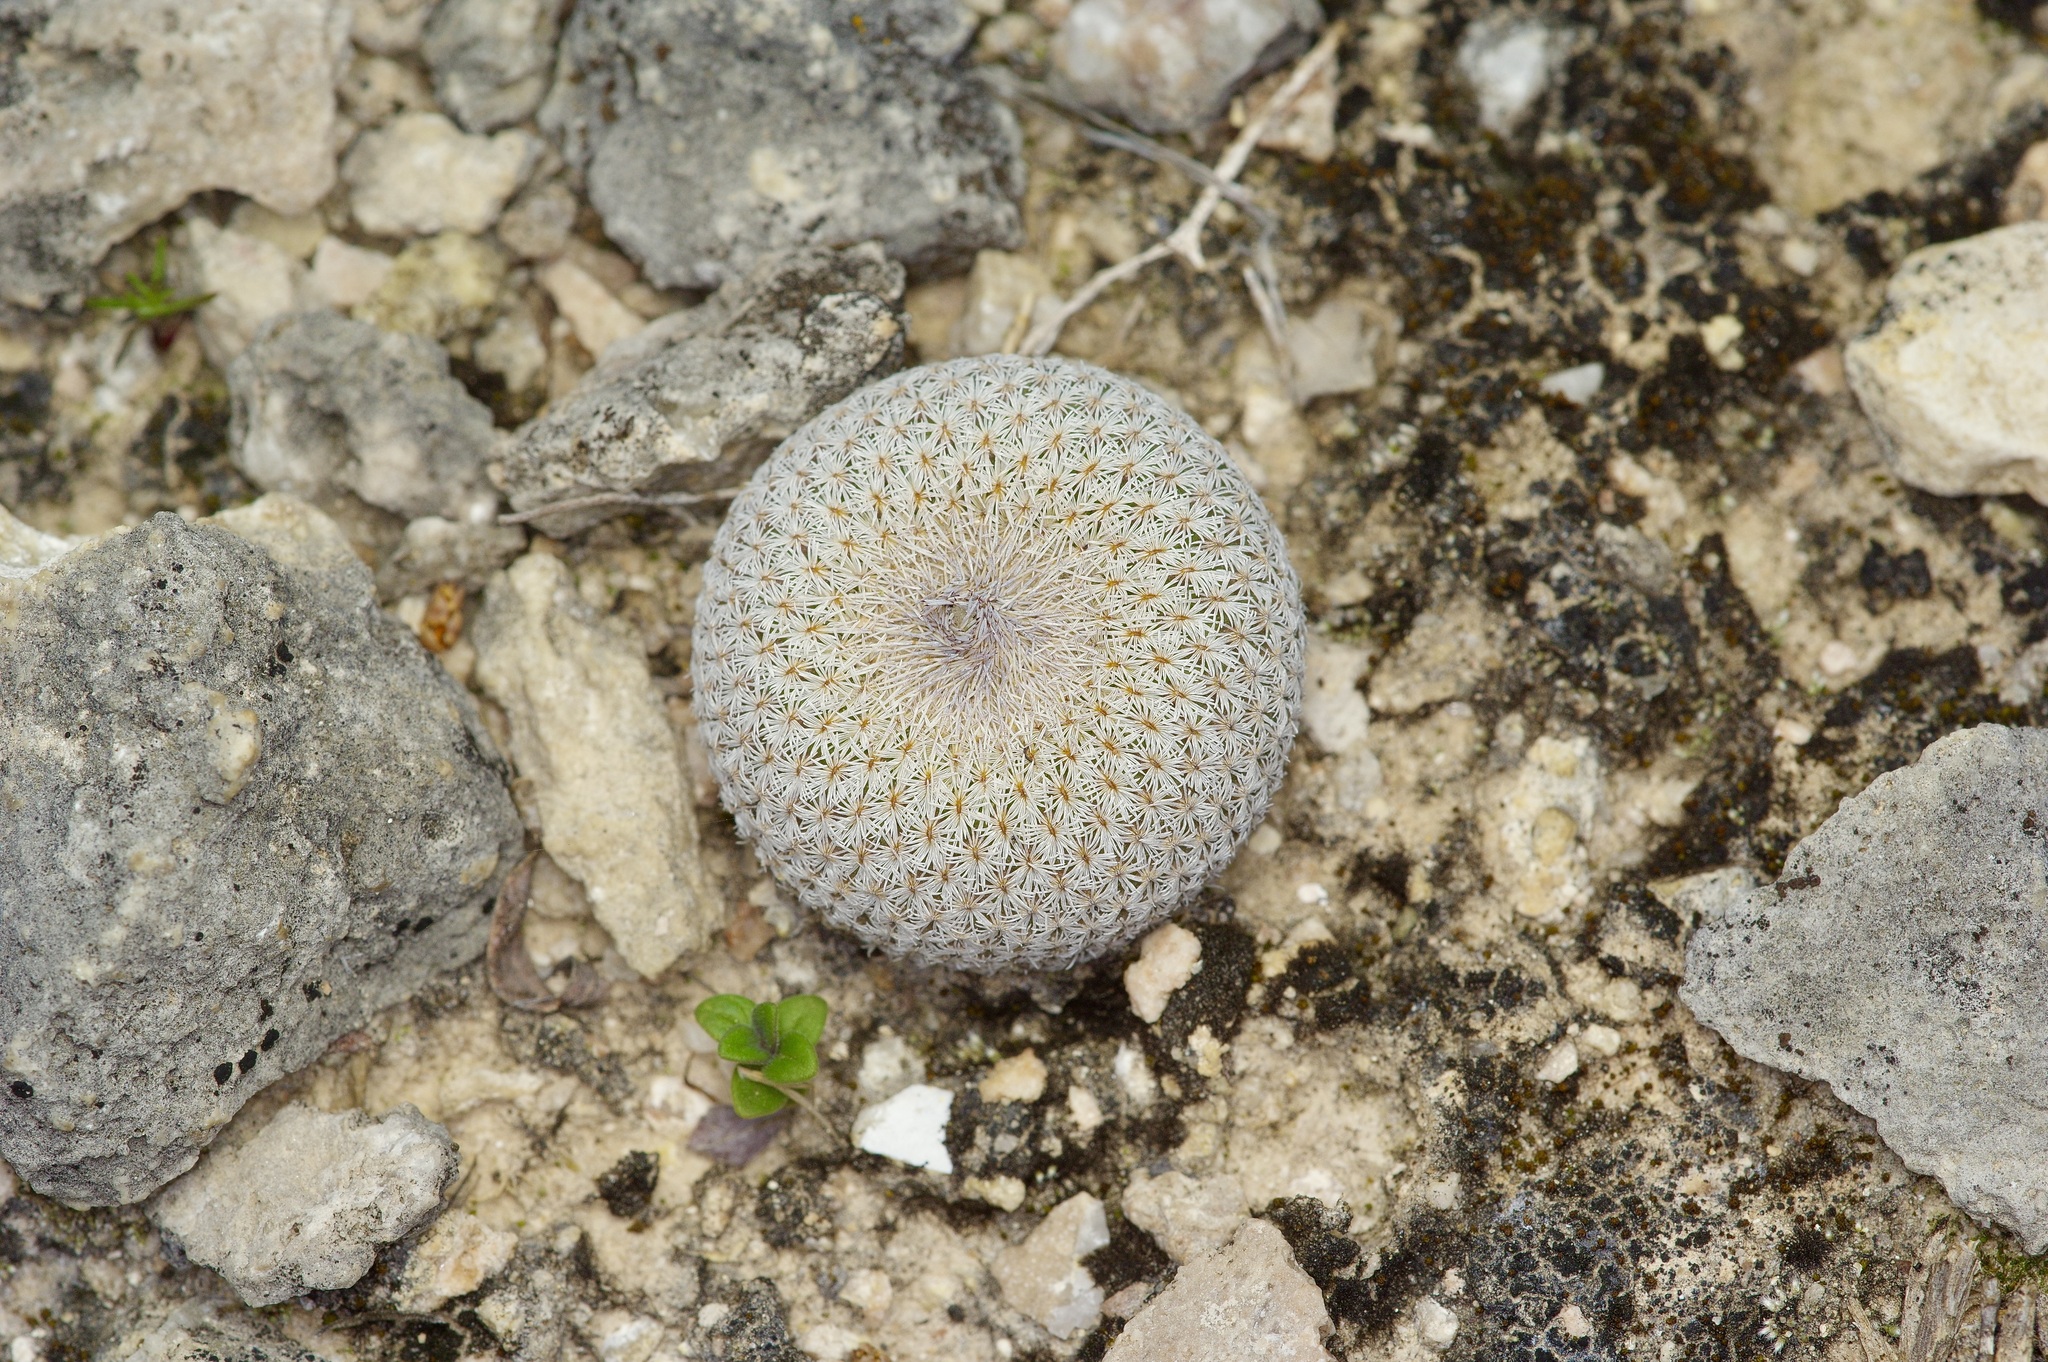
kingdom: Plantae
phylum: Tracheophyta
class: Magnoliopsida
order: Caryophyllales
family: Cactaceae
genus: Epithelantha
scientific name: Epithelantha micromeris
